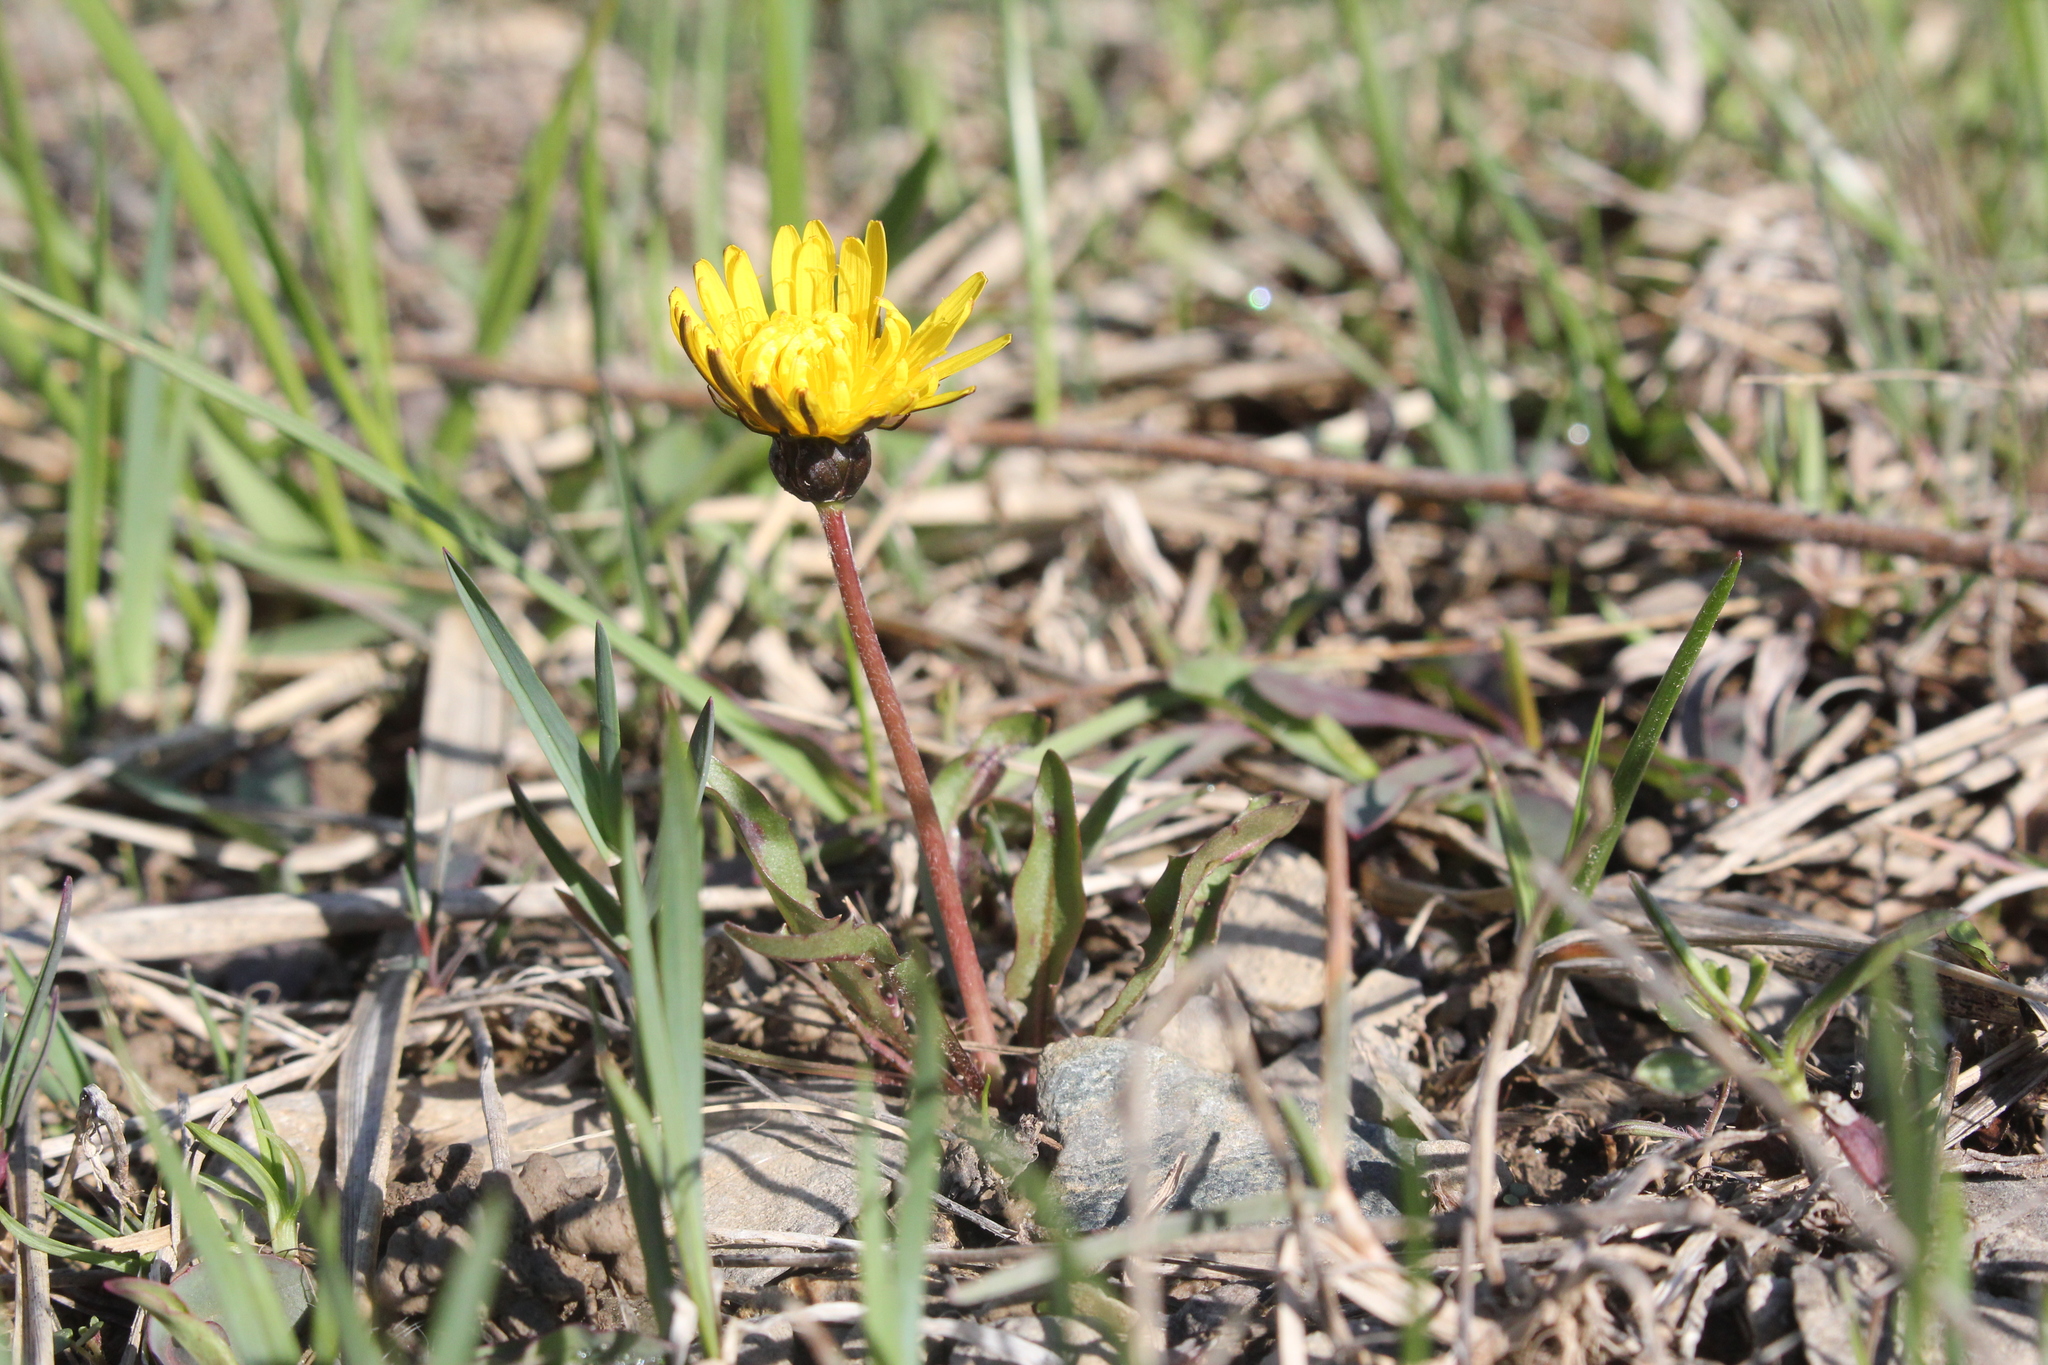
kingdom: Plantae
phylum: Tracheophyta
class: Magnoliopsida
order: Asterales
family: Asteraceae
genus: Taraxacum
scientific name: Taraxacum palustre
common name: Marsh dandelion
